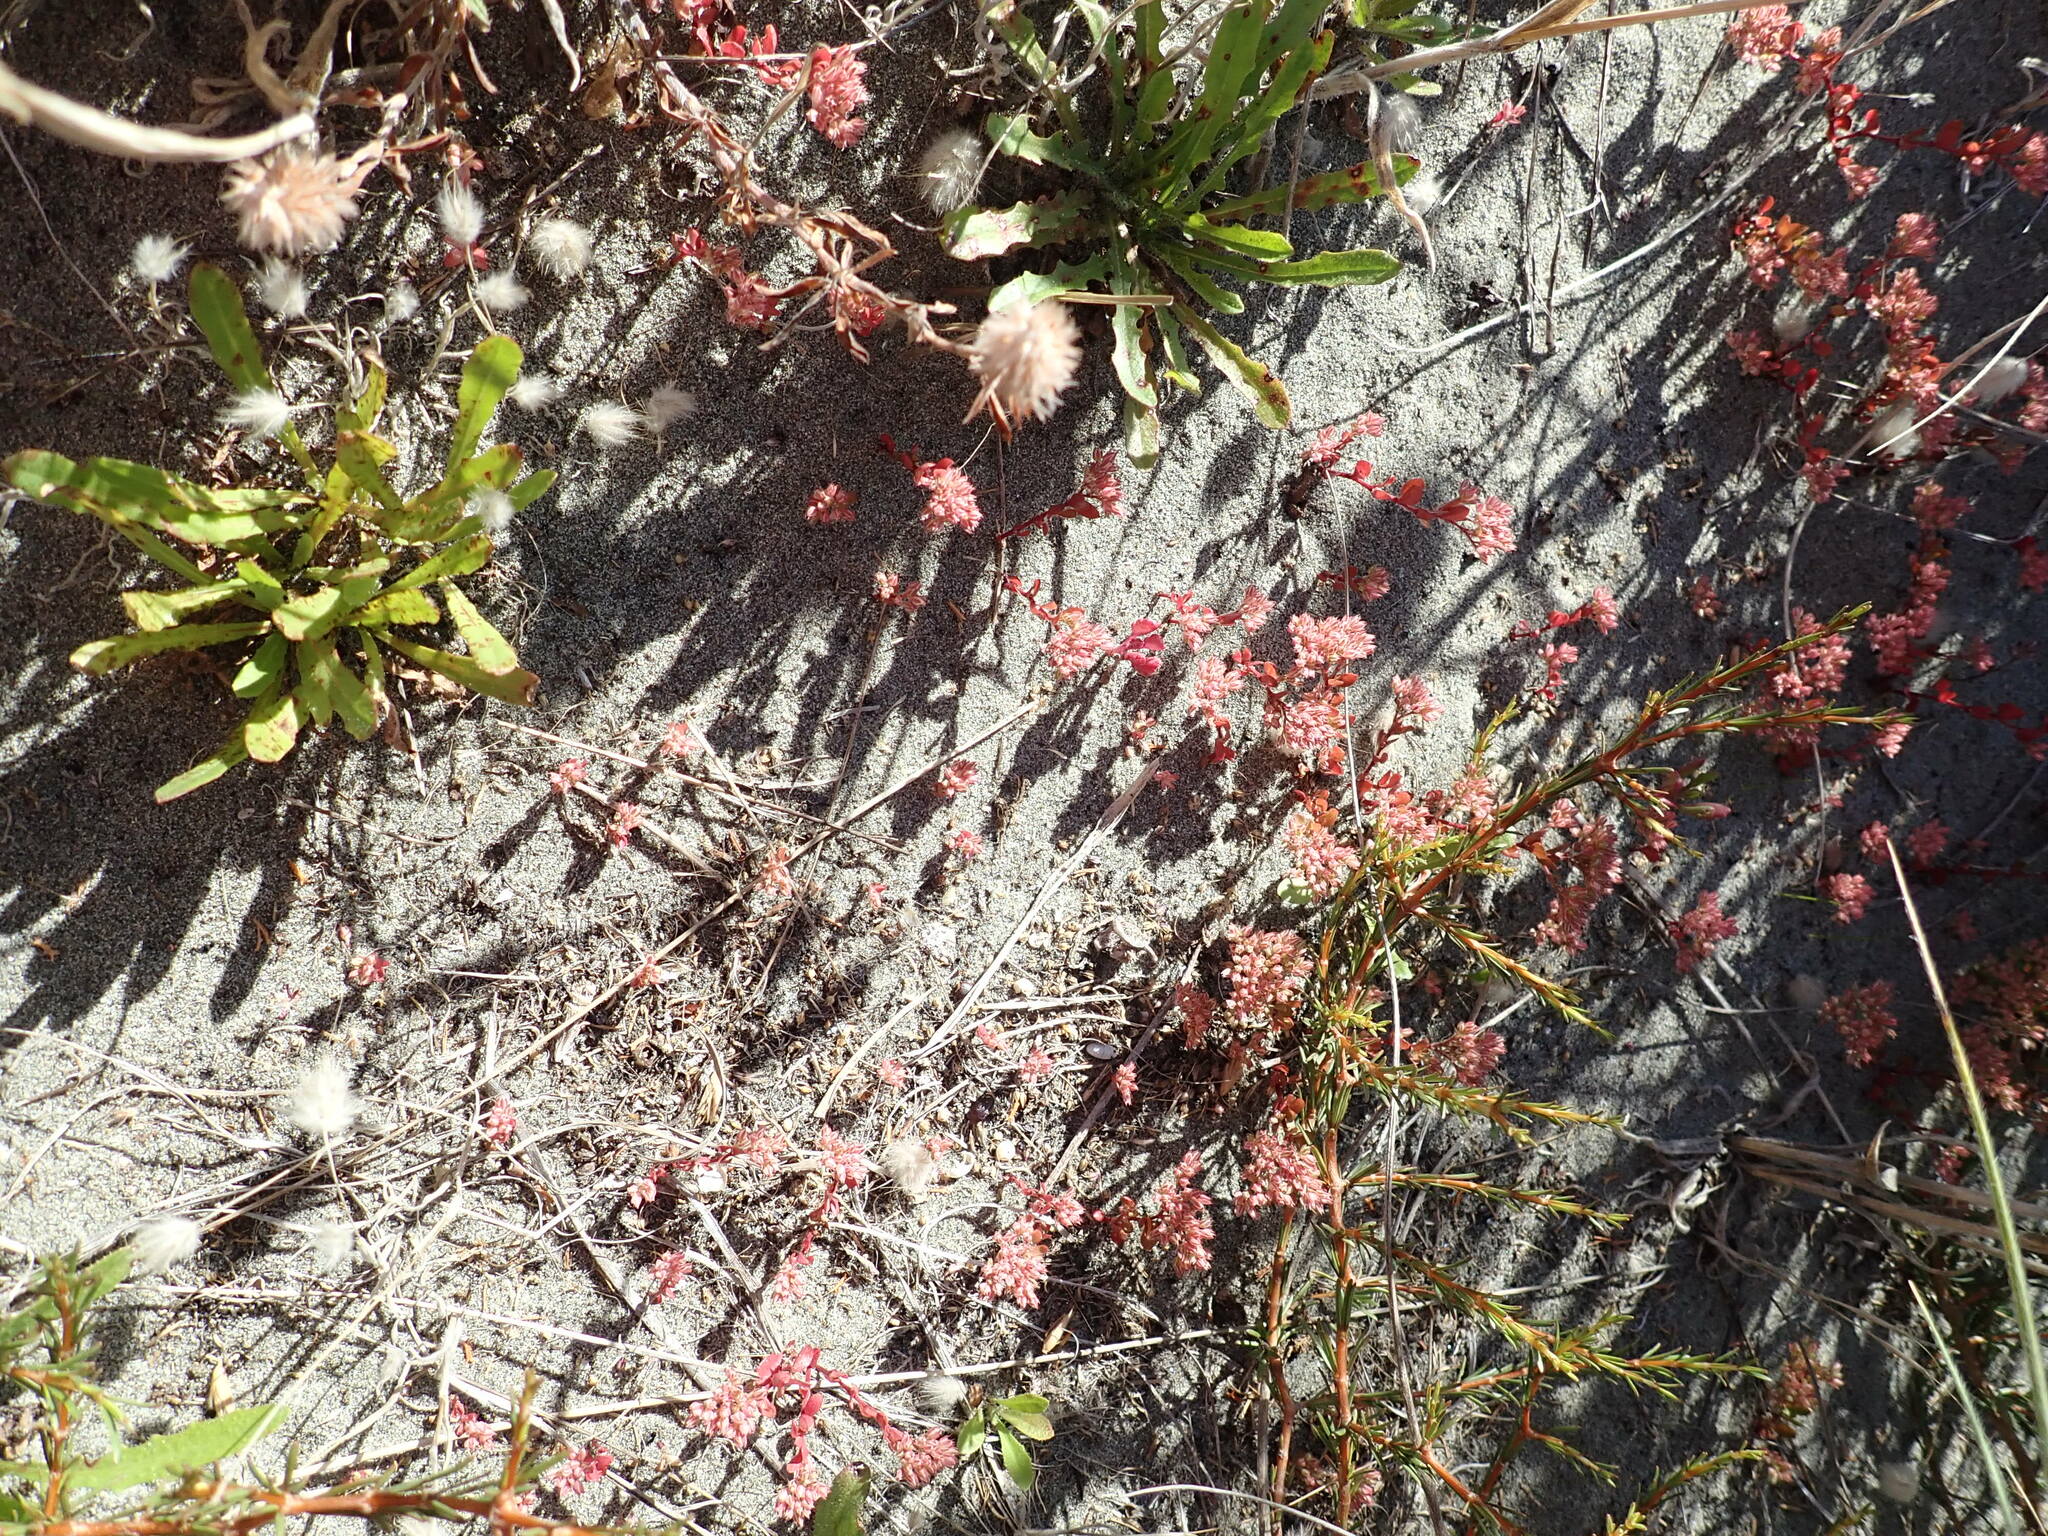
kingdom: Plantae
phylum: Tracheophyta
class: Magnoliopsida
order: Caryophyllales
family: Caryophyllaceae
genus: Polycarpon
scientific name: Polycarpon tetraphyllum
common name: Four-leaved all-seed
